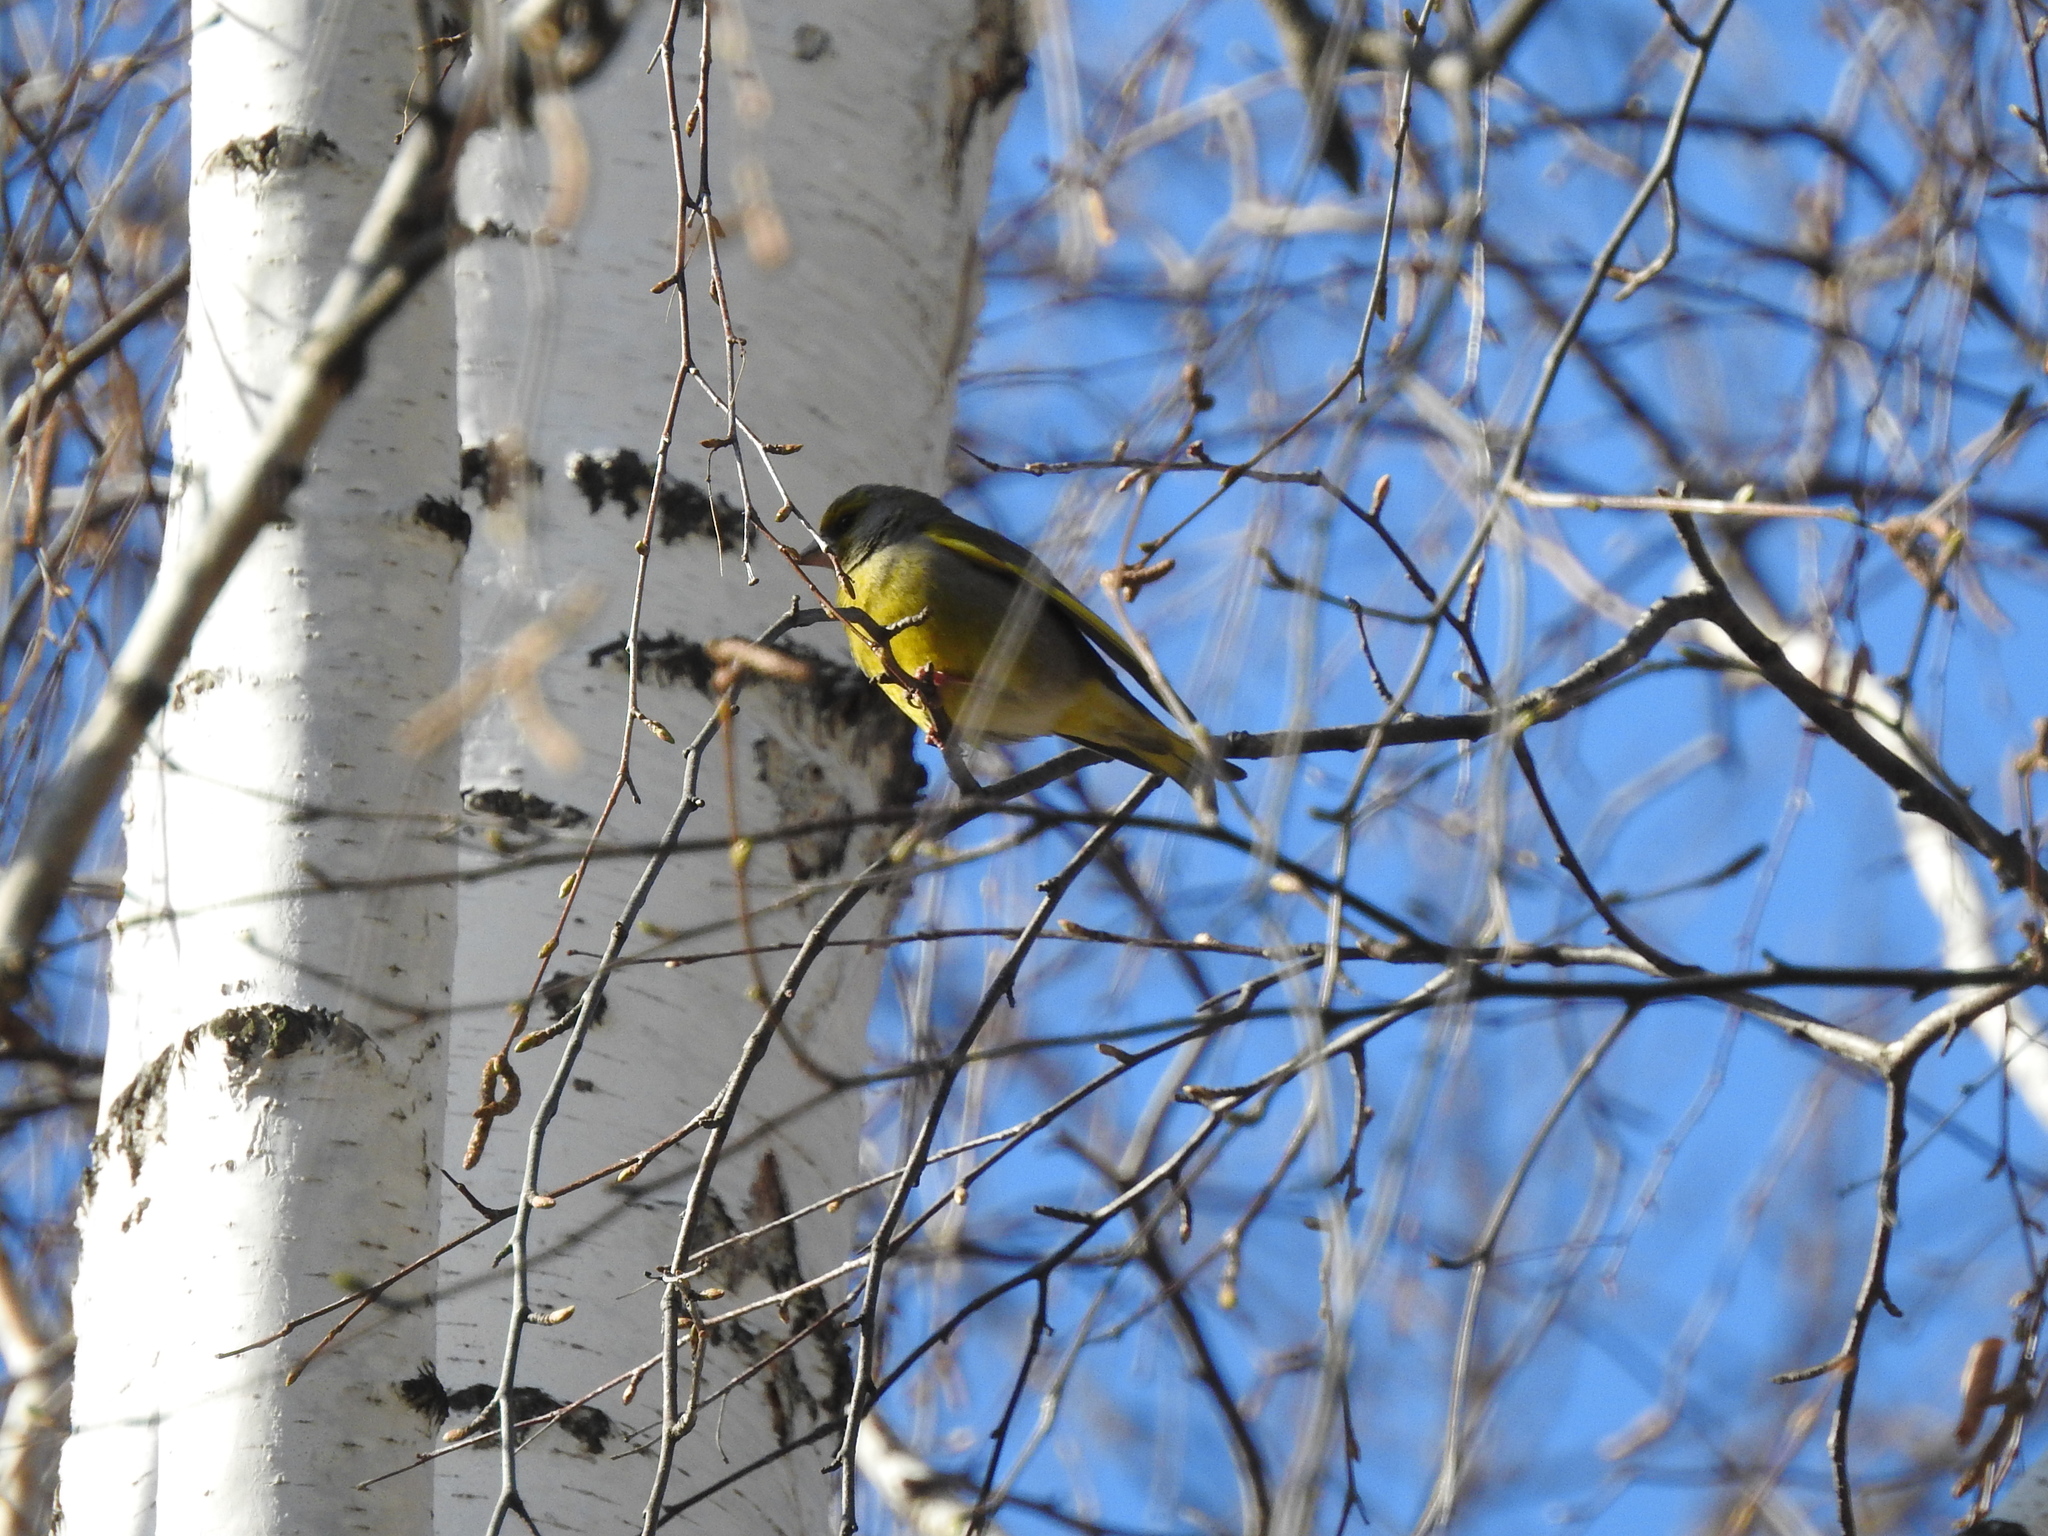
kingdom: Plantae
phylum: Tracheophyta
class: Liliopsida
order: Poales
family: Poaceae
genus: Chloris
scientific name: Chloris chloris
